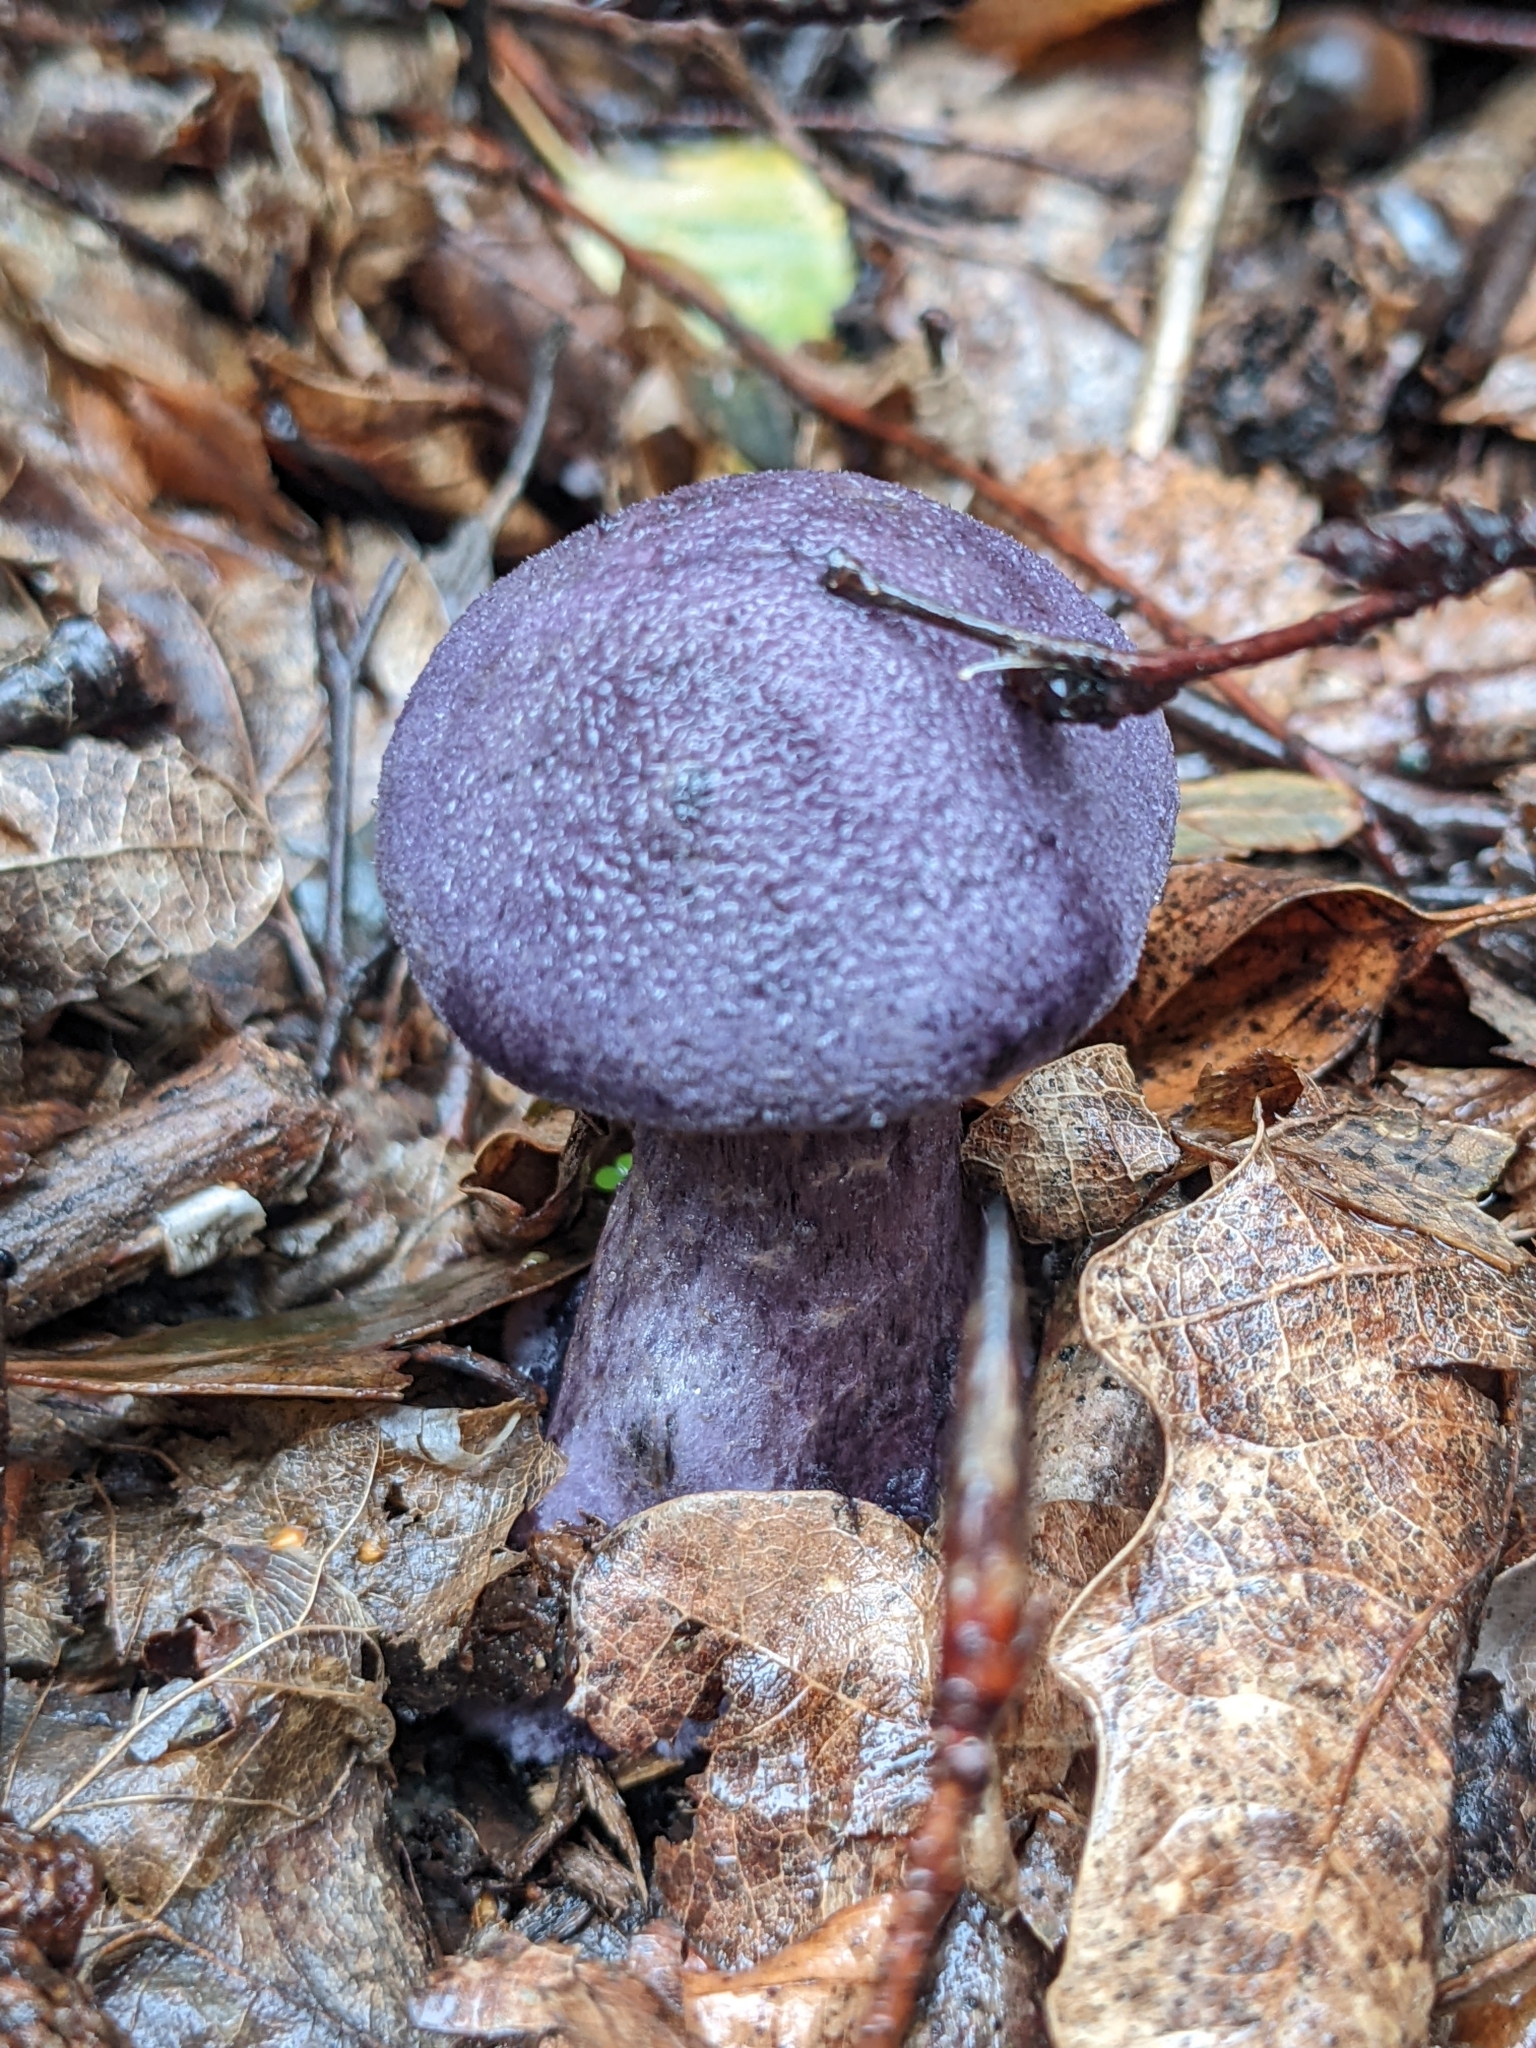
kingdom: Fungi
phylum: Basidiomycota
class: Agaricomycetes
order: Agaricales
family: Cortinariaceae
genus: Cortinarius
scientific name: Cortinarius violaceus
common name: Violet webcap
